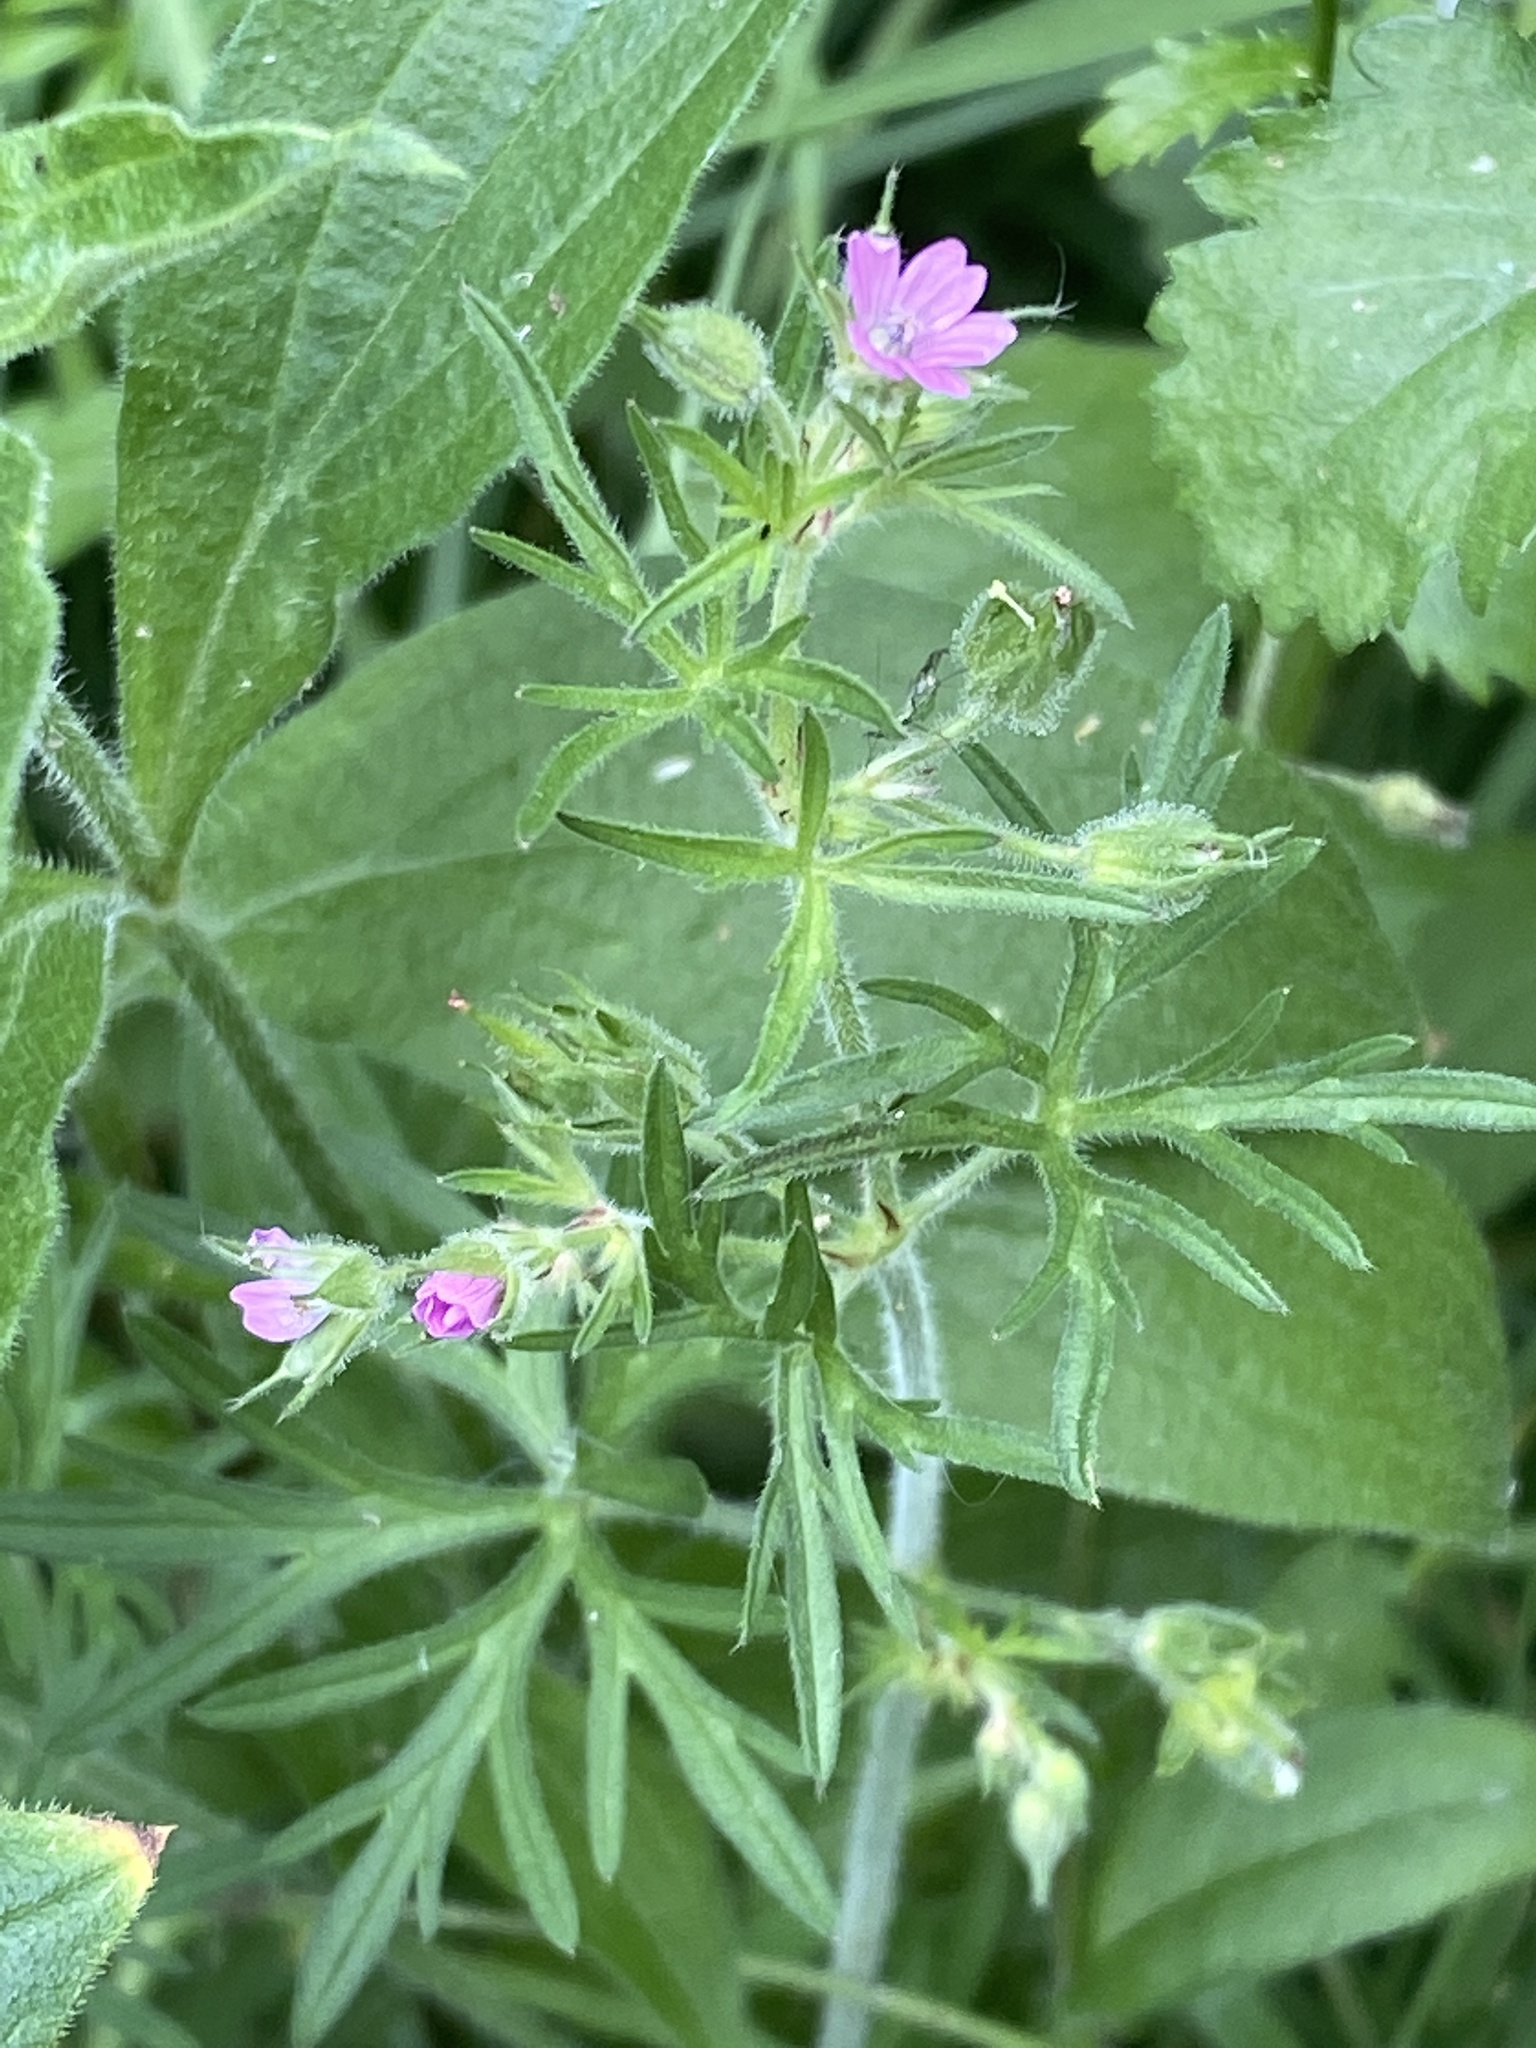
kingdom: Plantae
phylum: Tracheophyta
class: Magnoliopsida
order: Geraniales
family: Geraniaceae
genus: Geranium
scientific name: Geranium dissectum
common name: Cut-leaved crane's-bill
